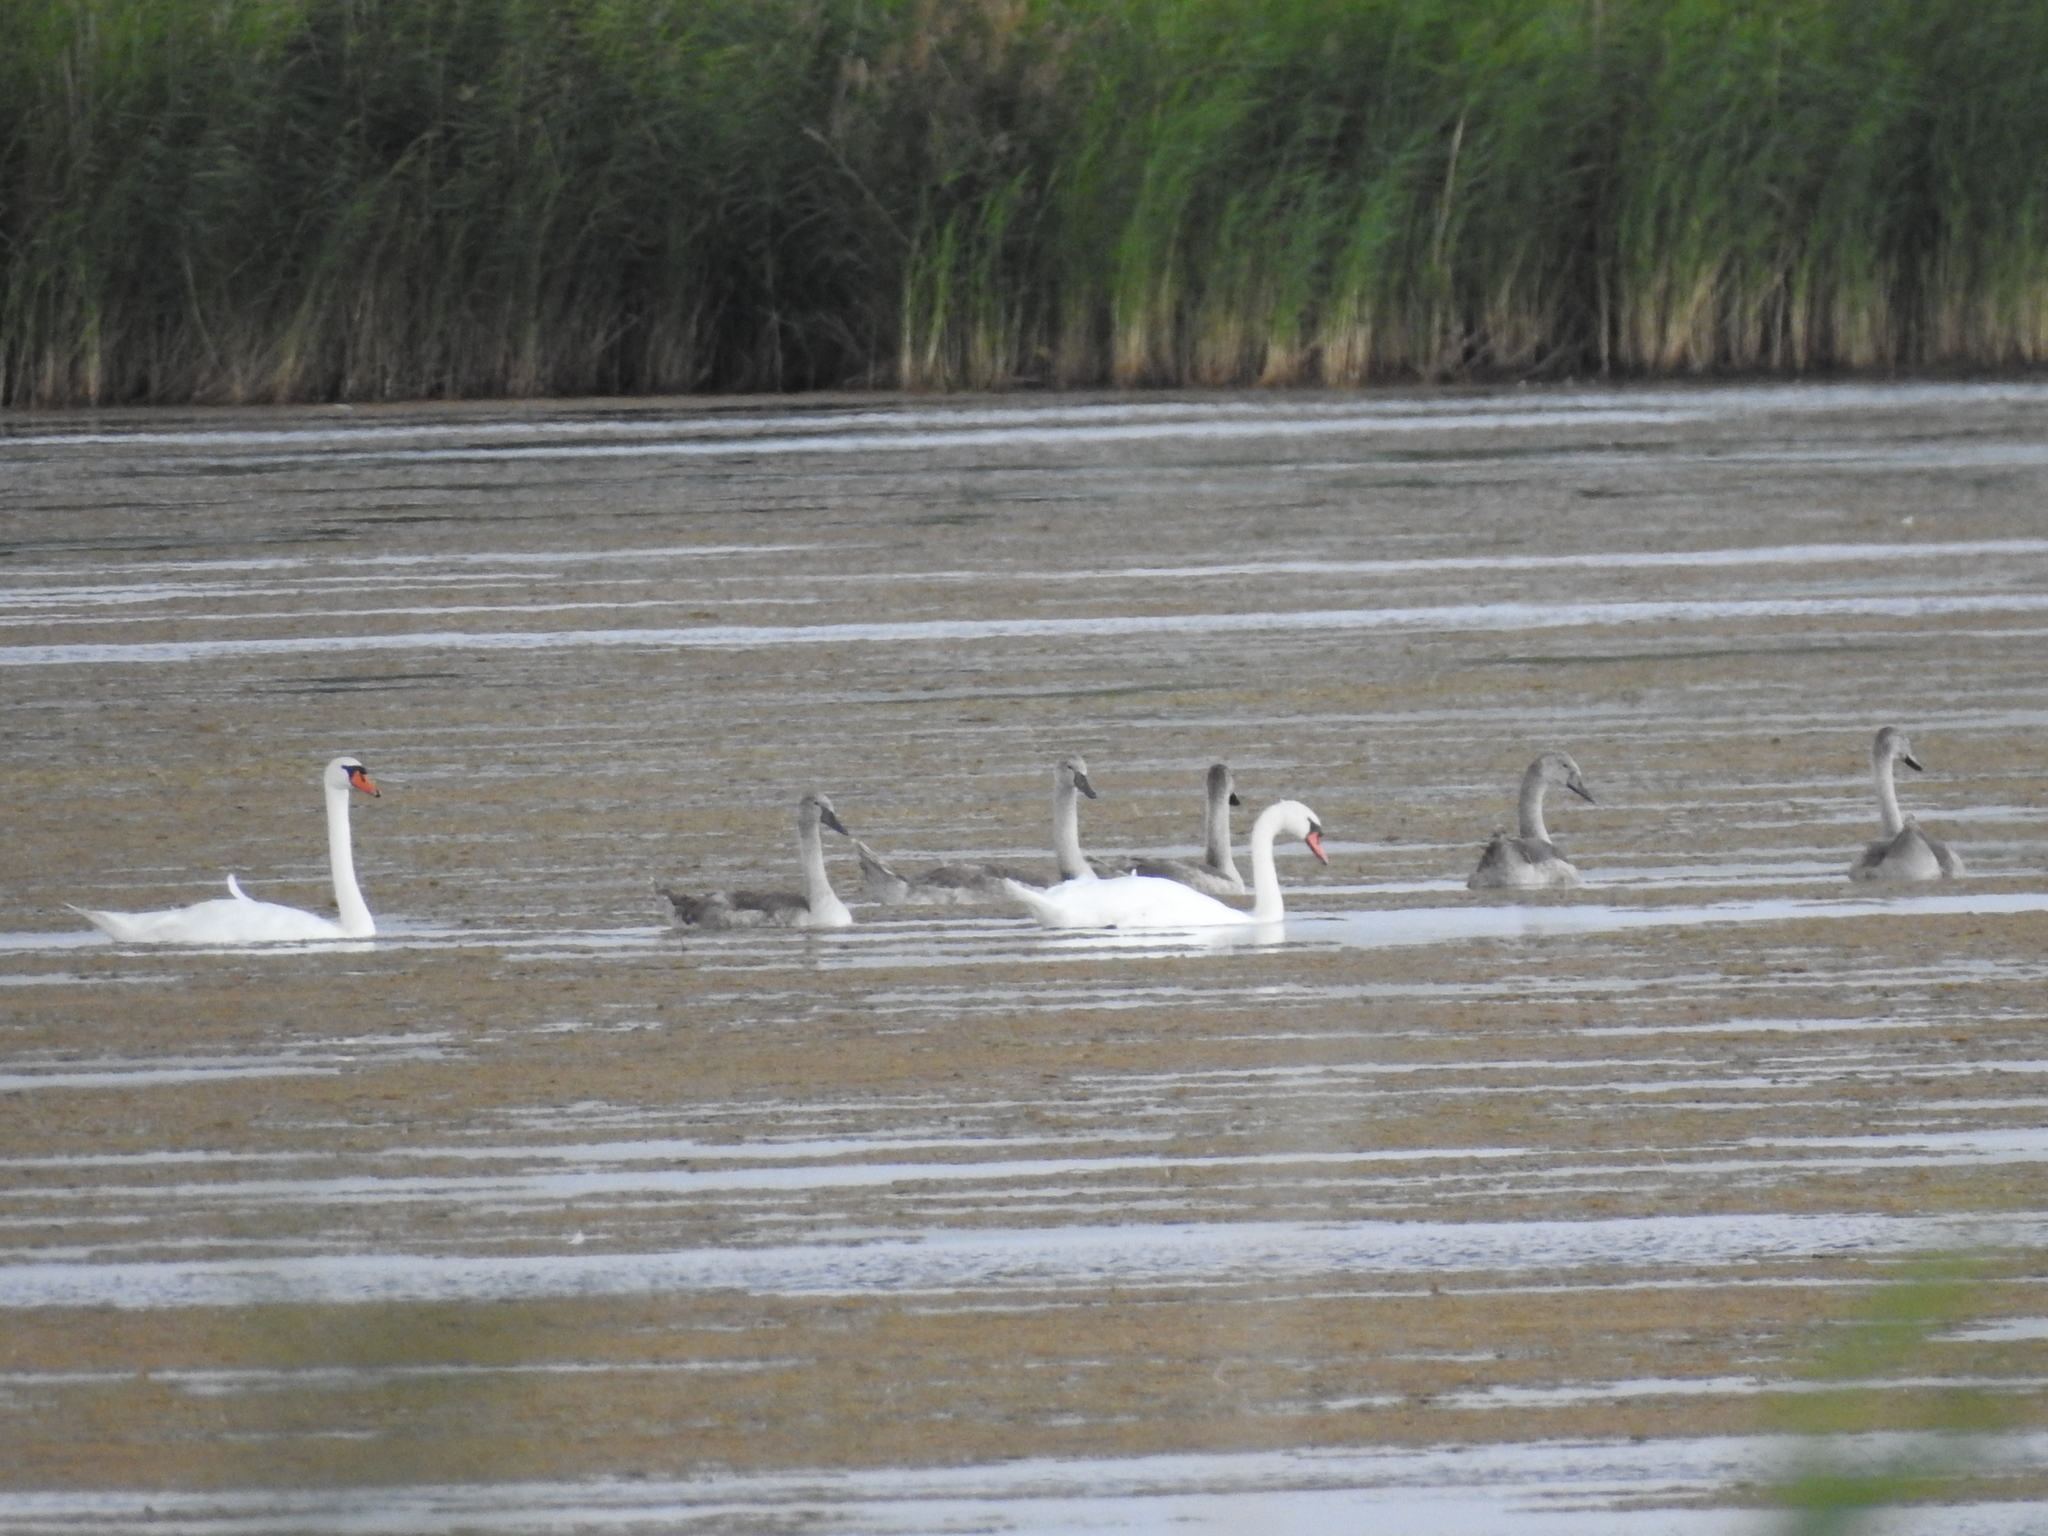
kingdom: Animalia
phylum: Chordata
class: Aves
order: Anseriformes
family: Anatidae
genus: Cygnus
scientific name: Cygnus olor
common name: Mute swan
